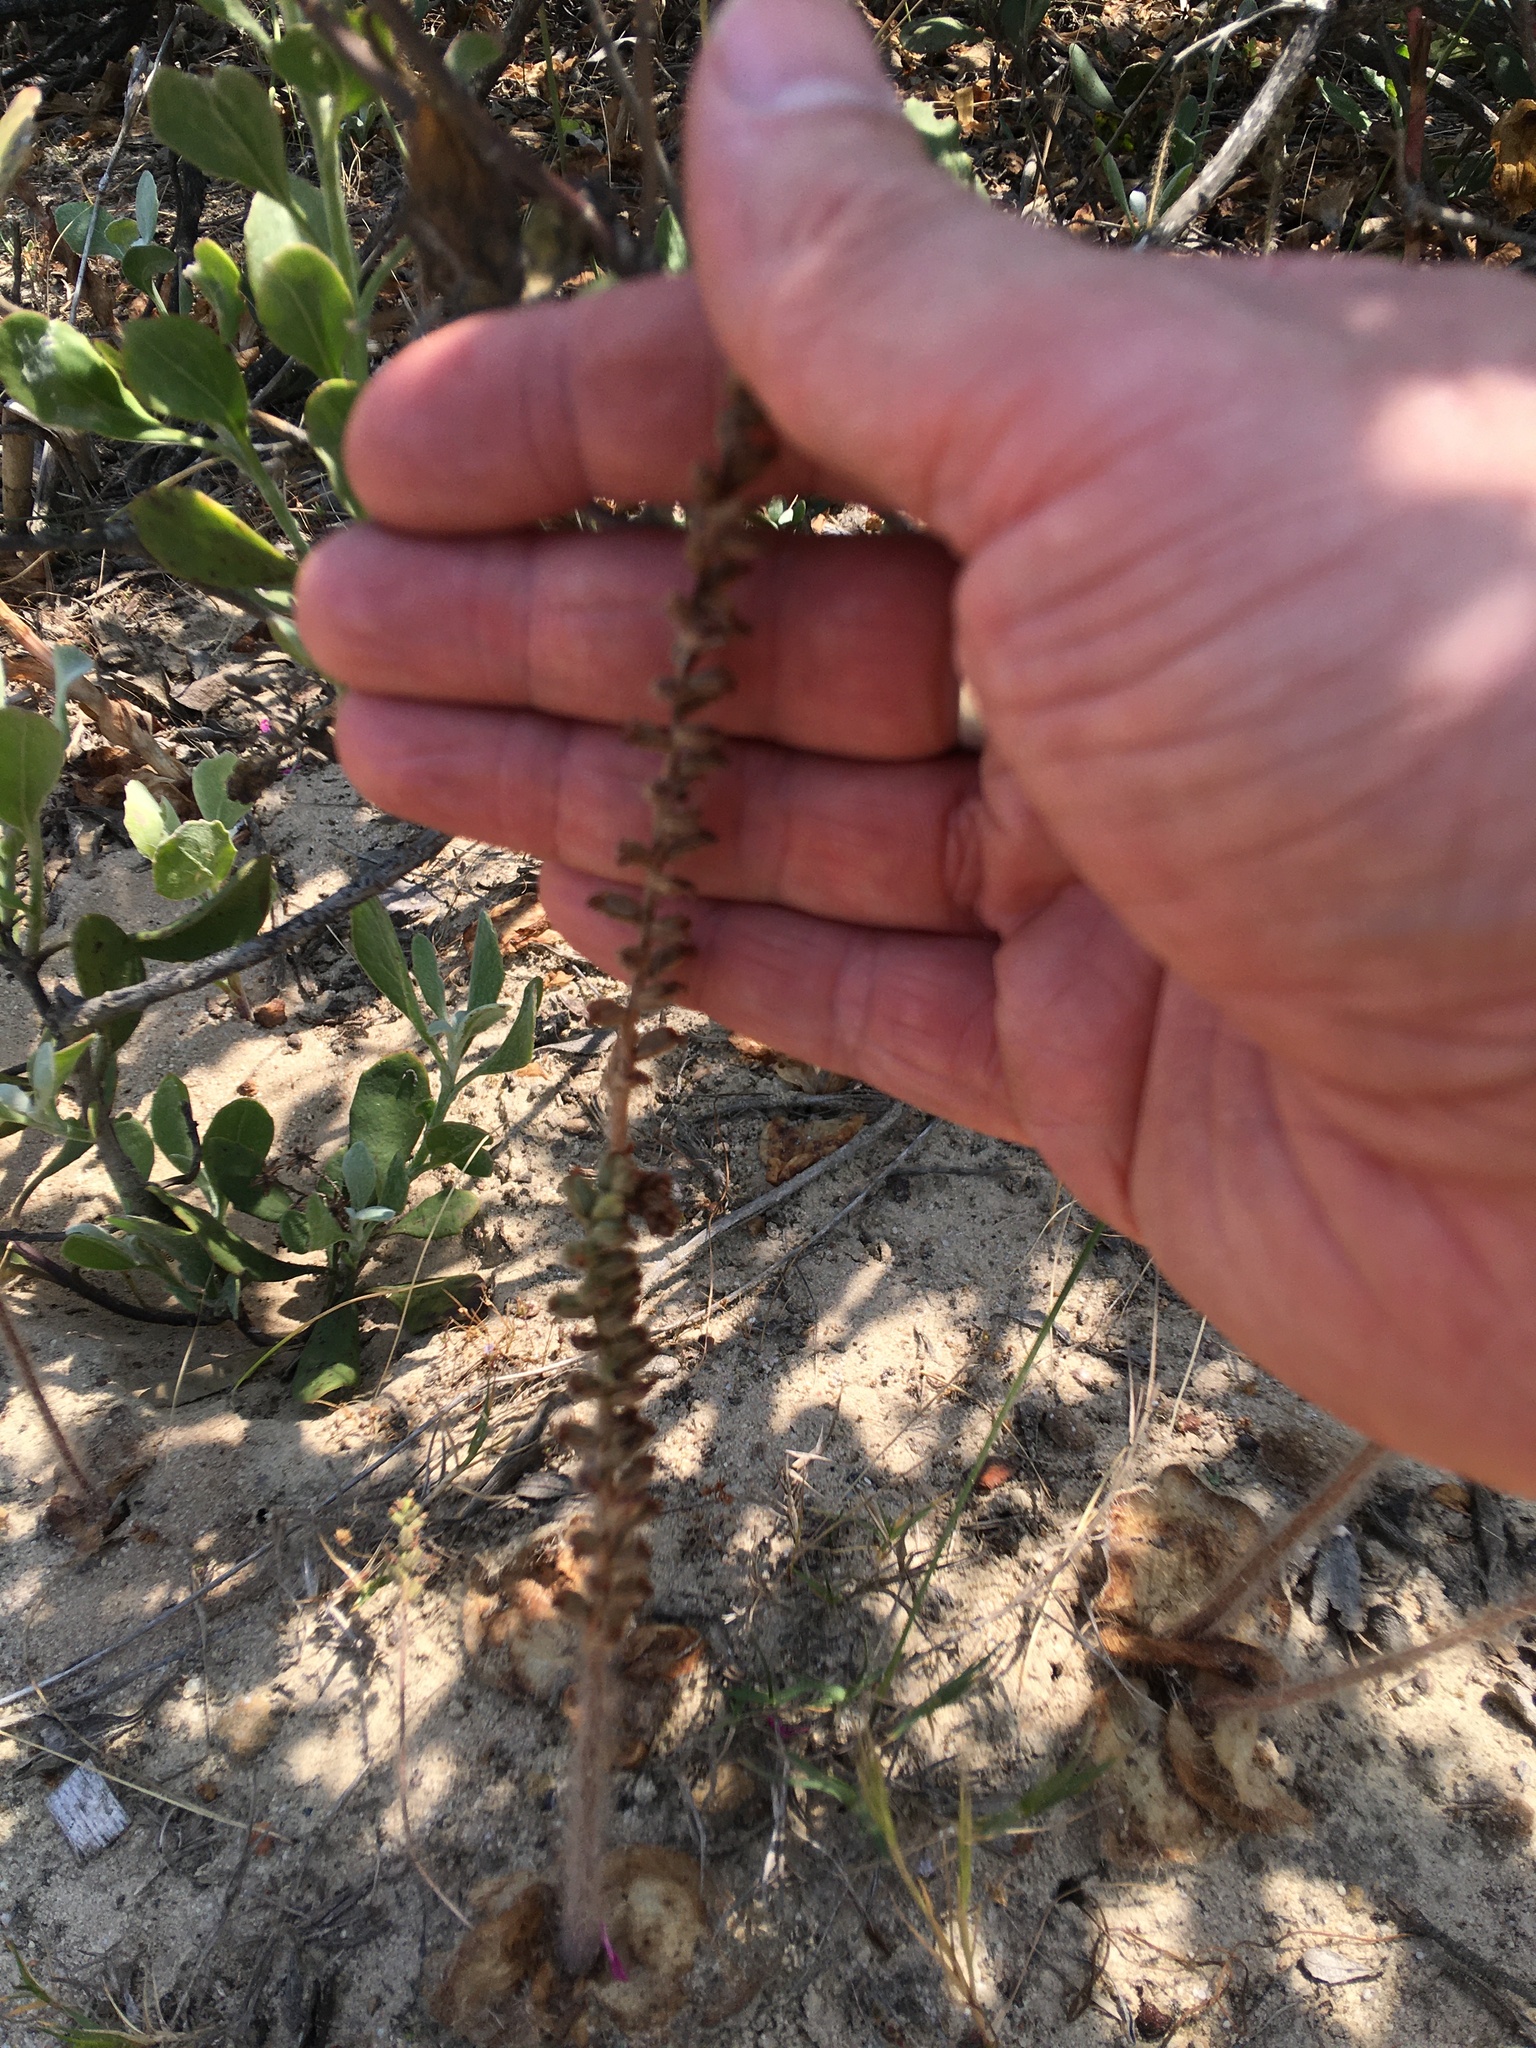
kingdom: Plantae
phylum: Tracheophyta
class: Liliopsida
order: Asparagales
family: Orchidaceae
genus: Holothrix
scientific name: Holothrix villosa
